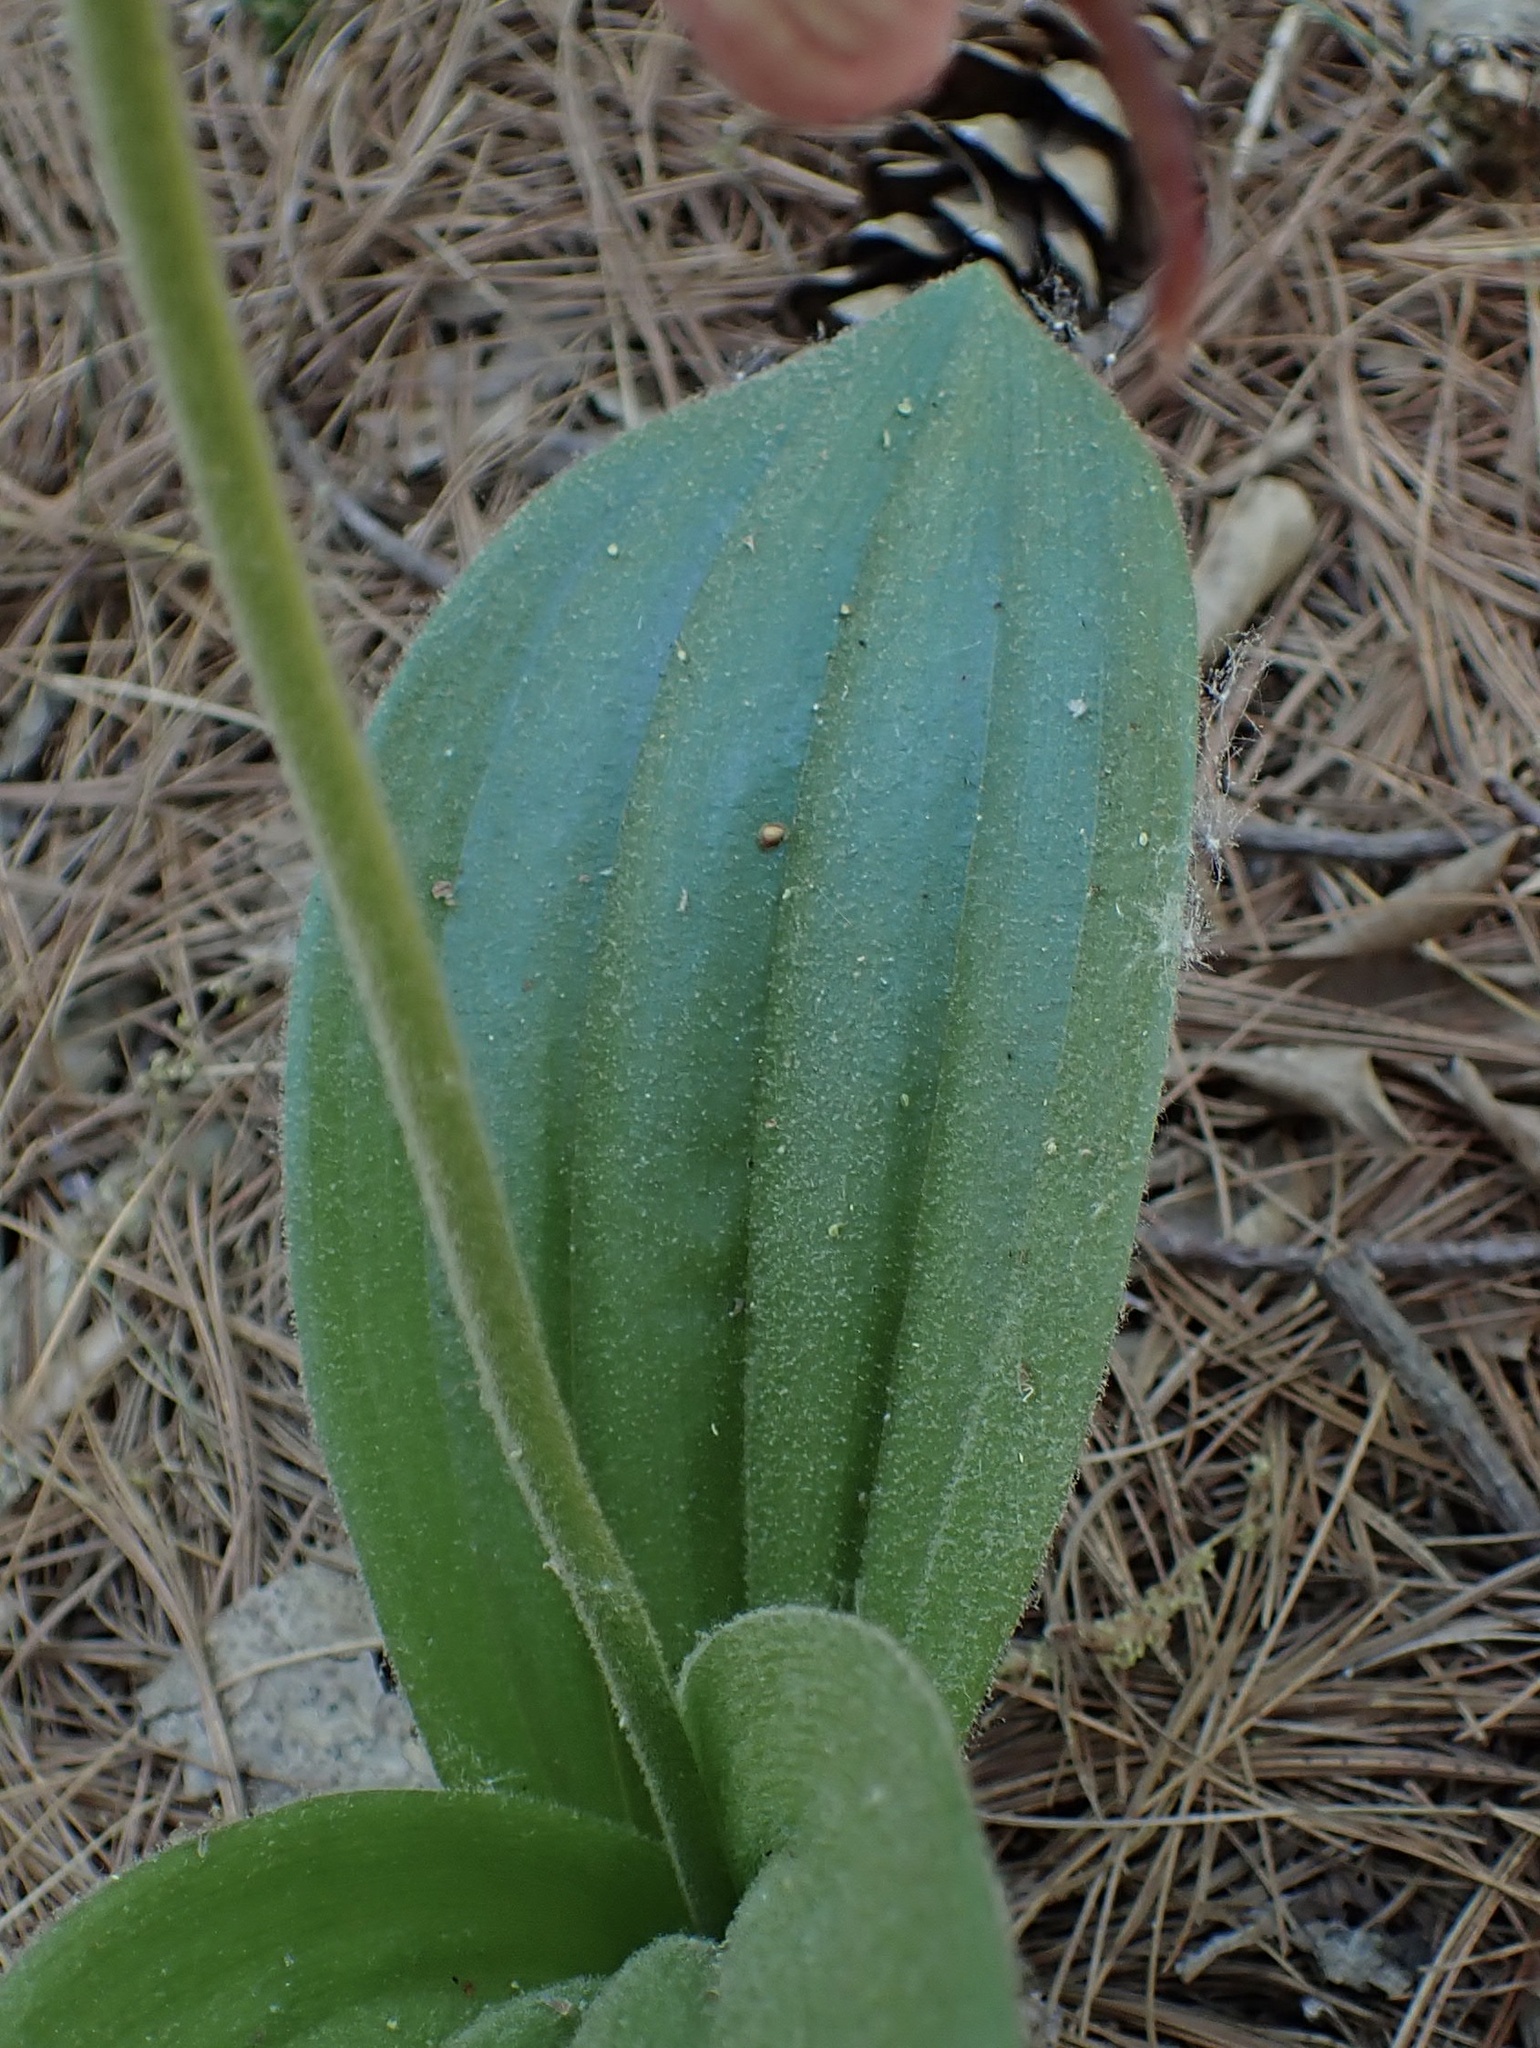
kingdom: Plantae
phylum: Tracheophyta
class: Liliopsida
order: Asparagales
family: Orchidaceae
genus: Cypripedium
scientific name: Cypripedium acaule
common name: Pink lady's-slipper
